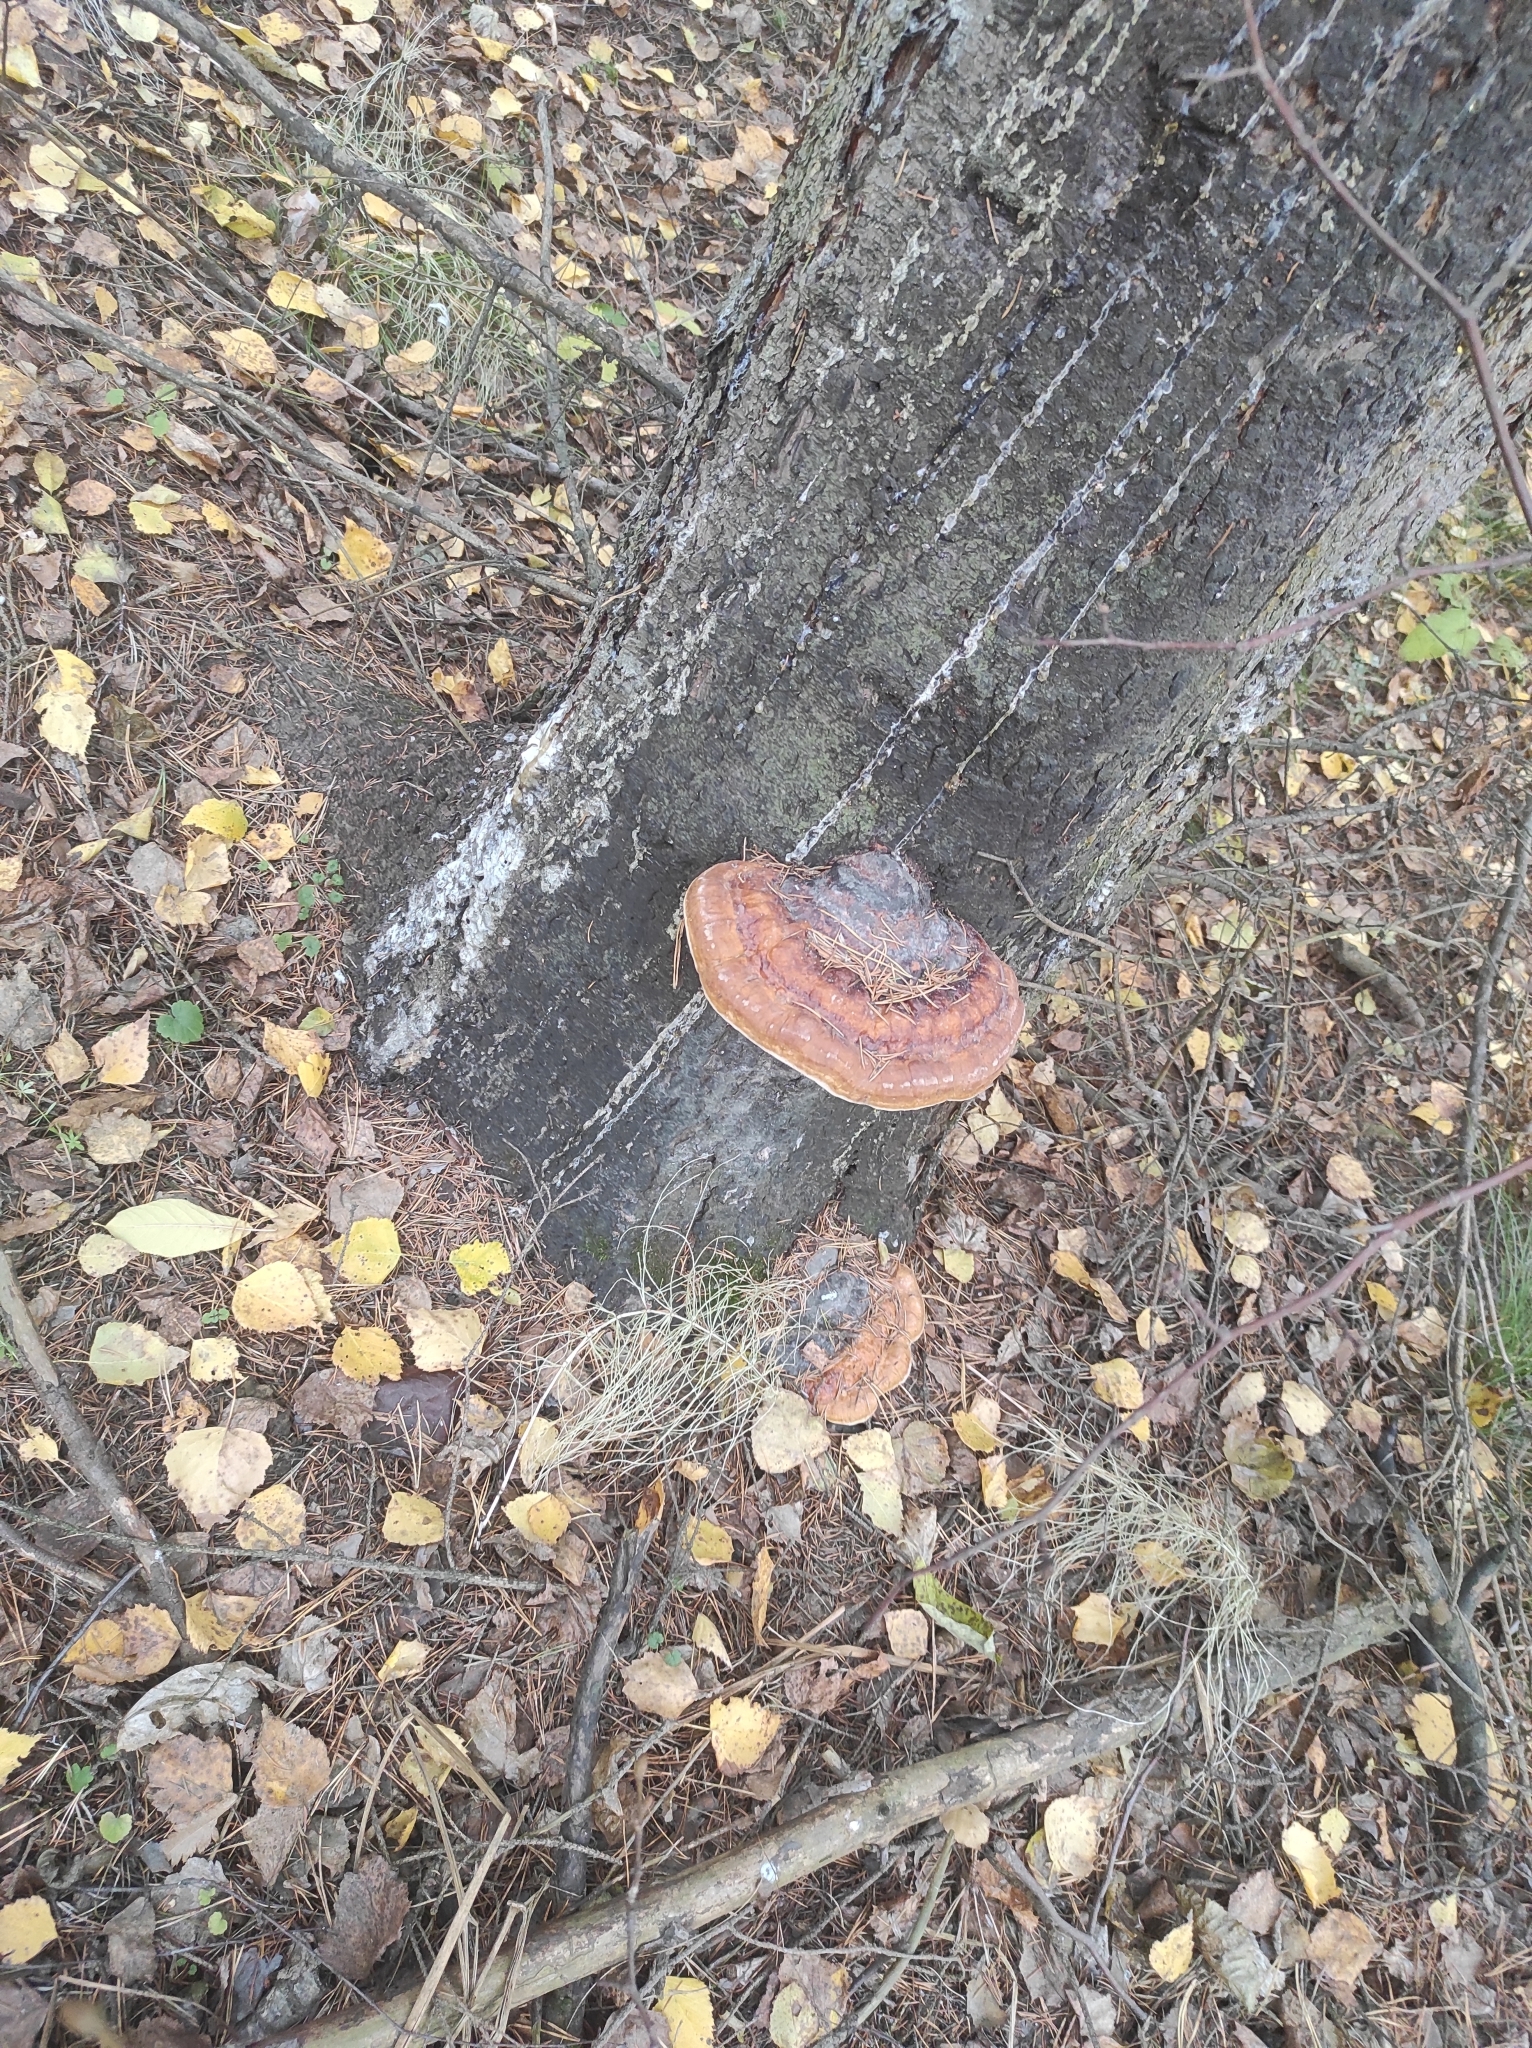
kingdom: Fungi
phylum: Basidiomycota
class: Agaricomycetes
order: Polyporales
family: Fomitopsidaceae
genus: Fomitopsis
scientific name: Fomitopsis pinicola
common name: Red-belted bracket
